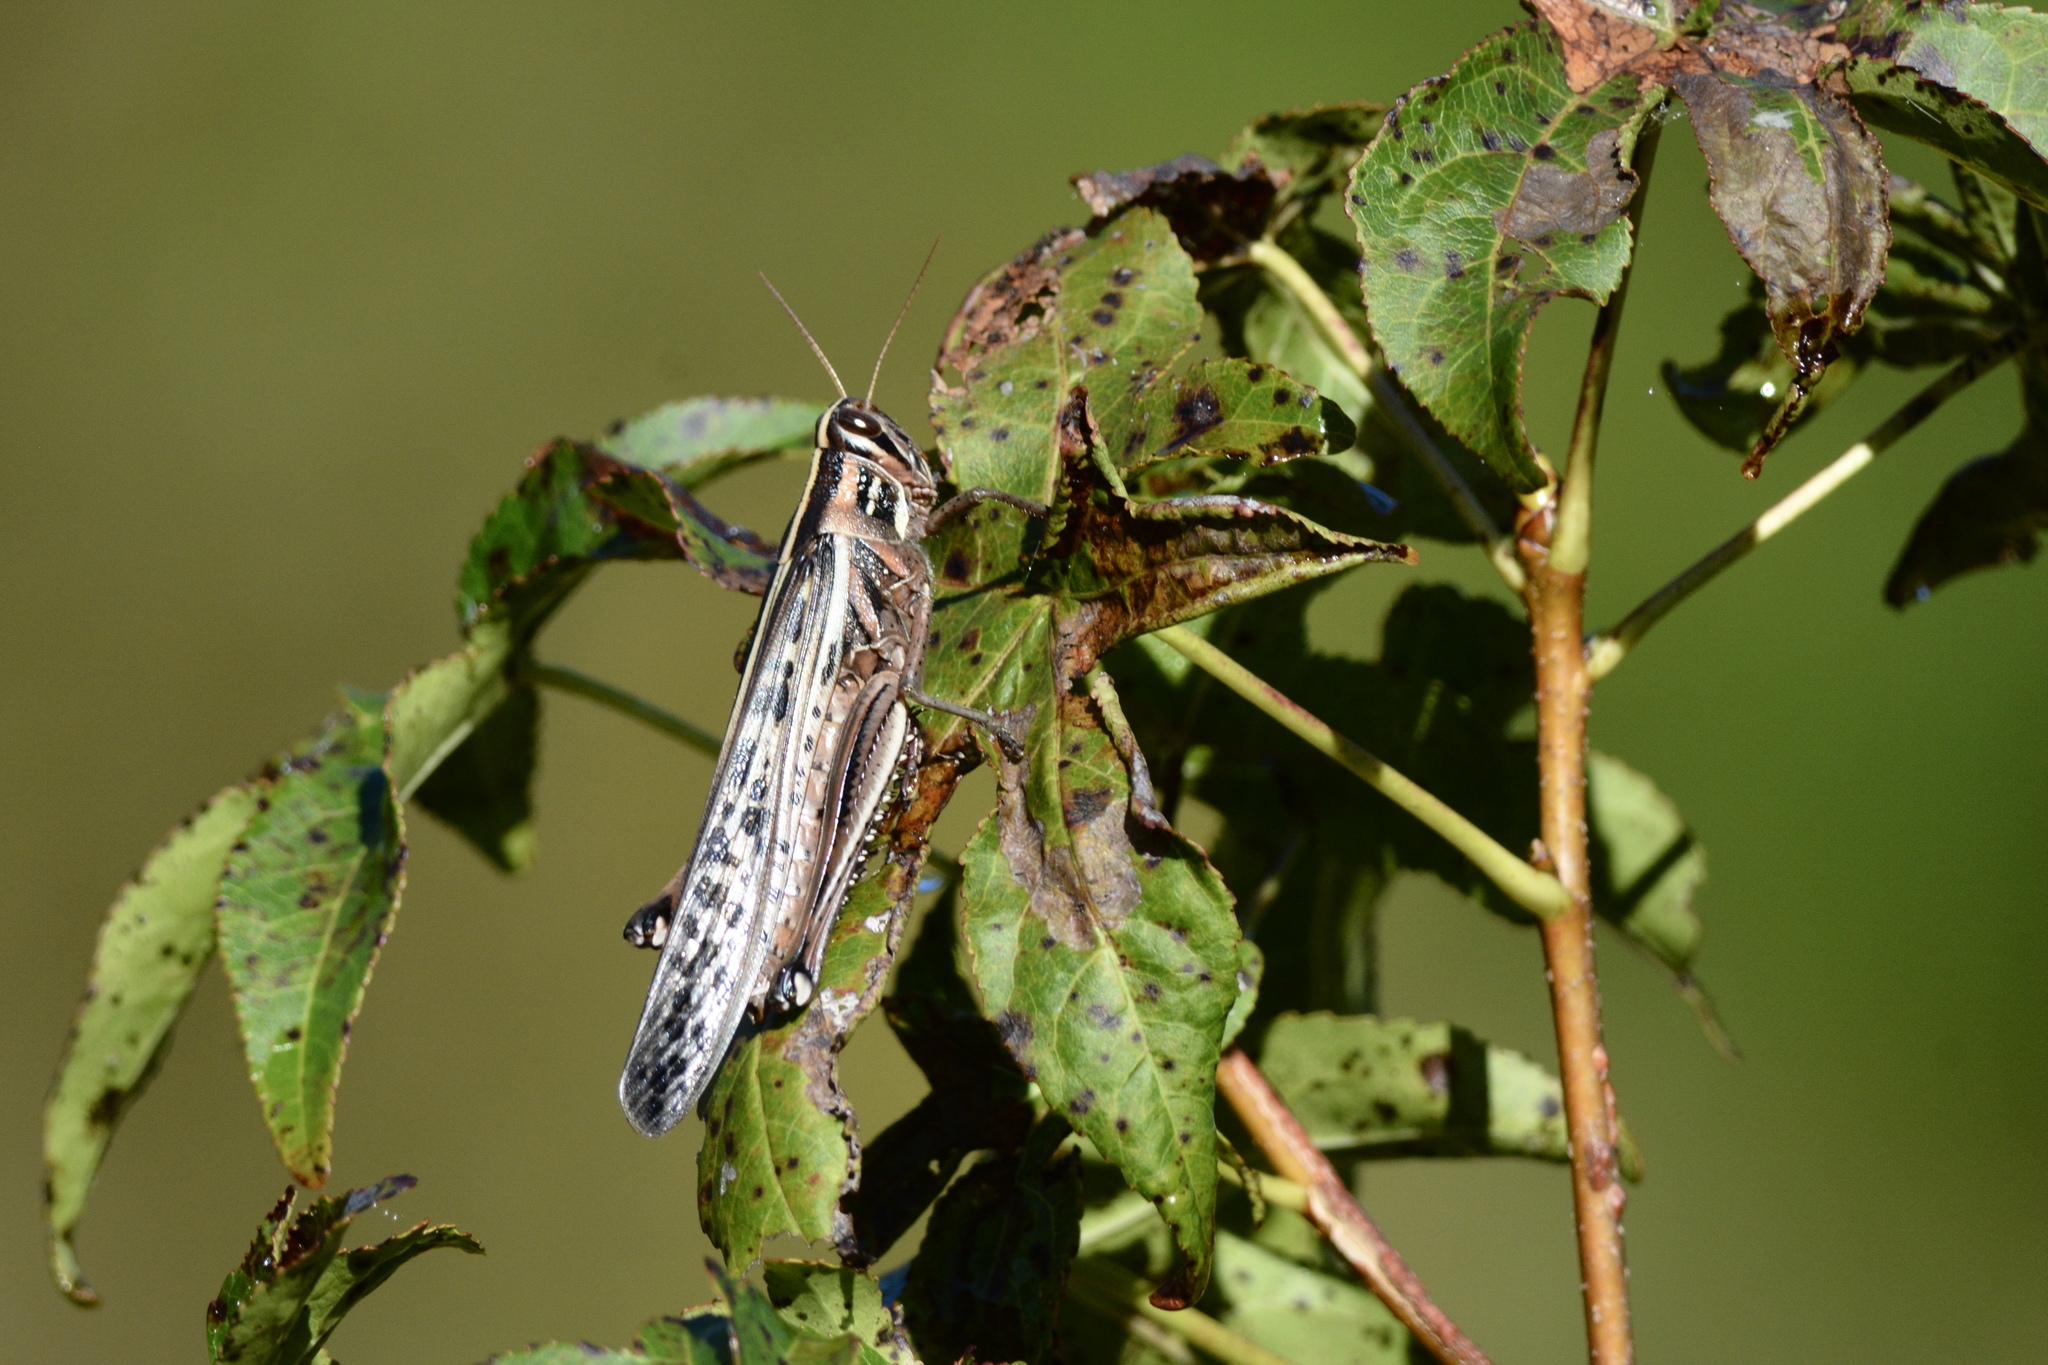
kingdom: Animalia
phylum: Arthropoda
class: Insecta
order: Orthoptera
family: Acrididae
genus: Schistocerca
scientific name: Schistocerca americana
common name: American bird locust
